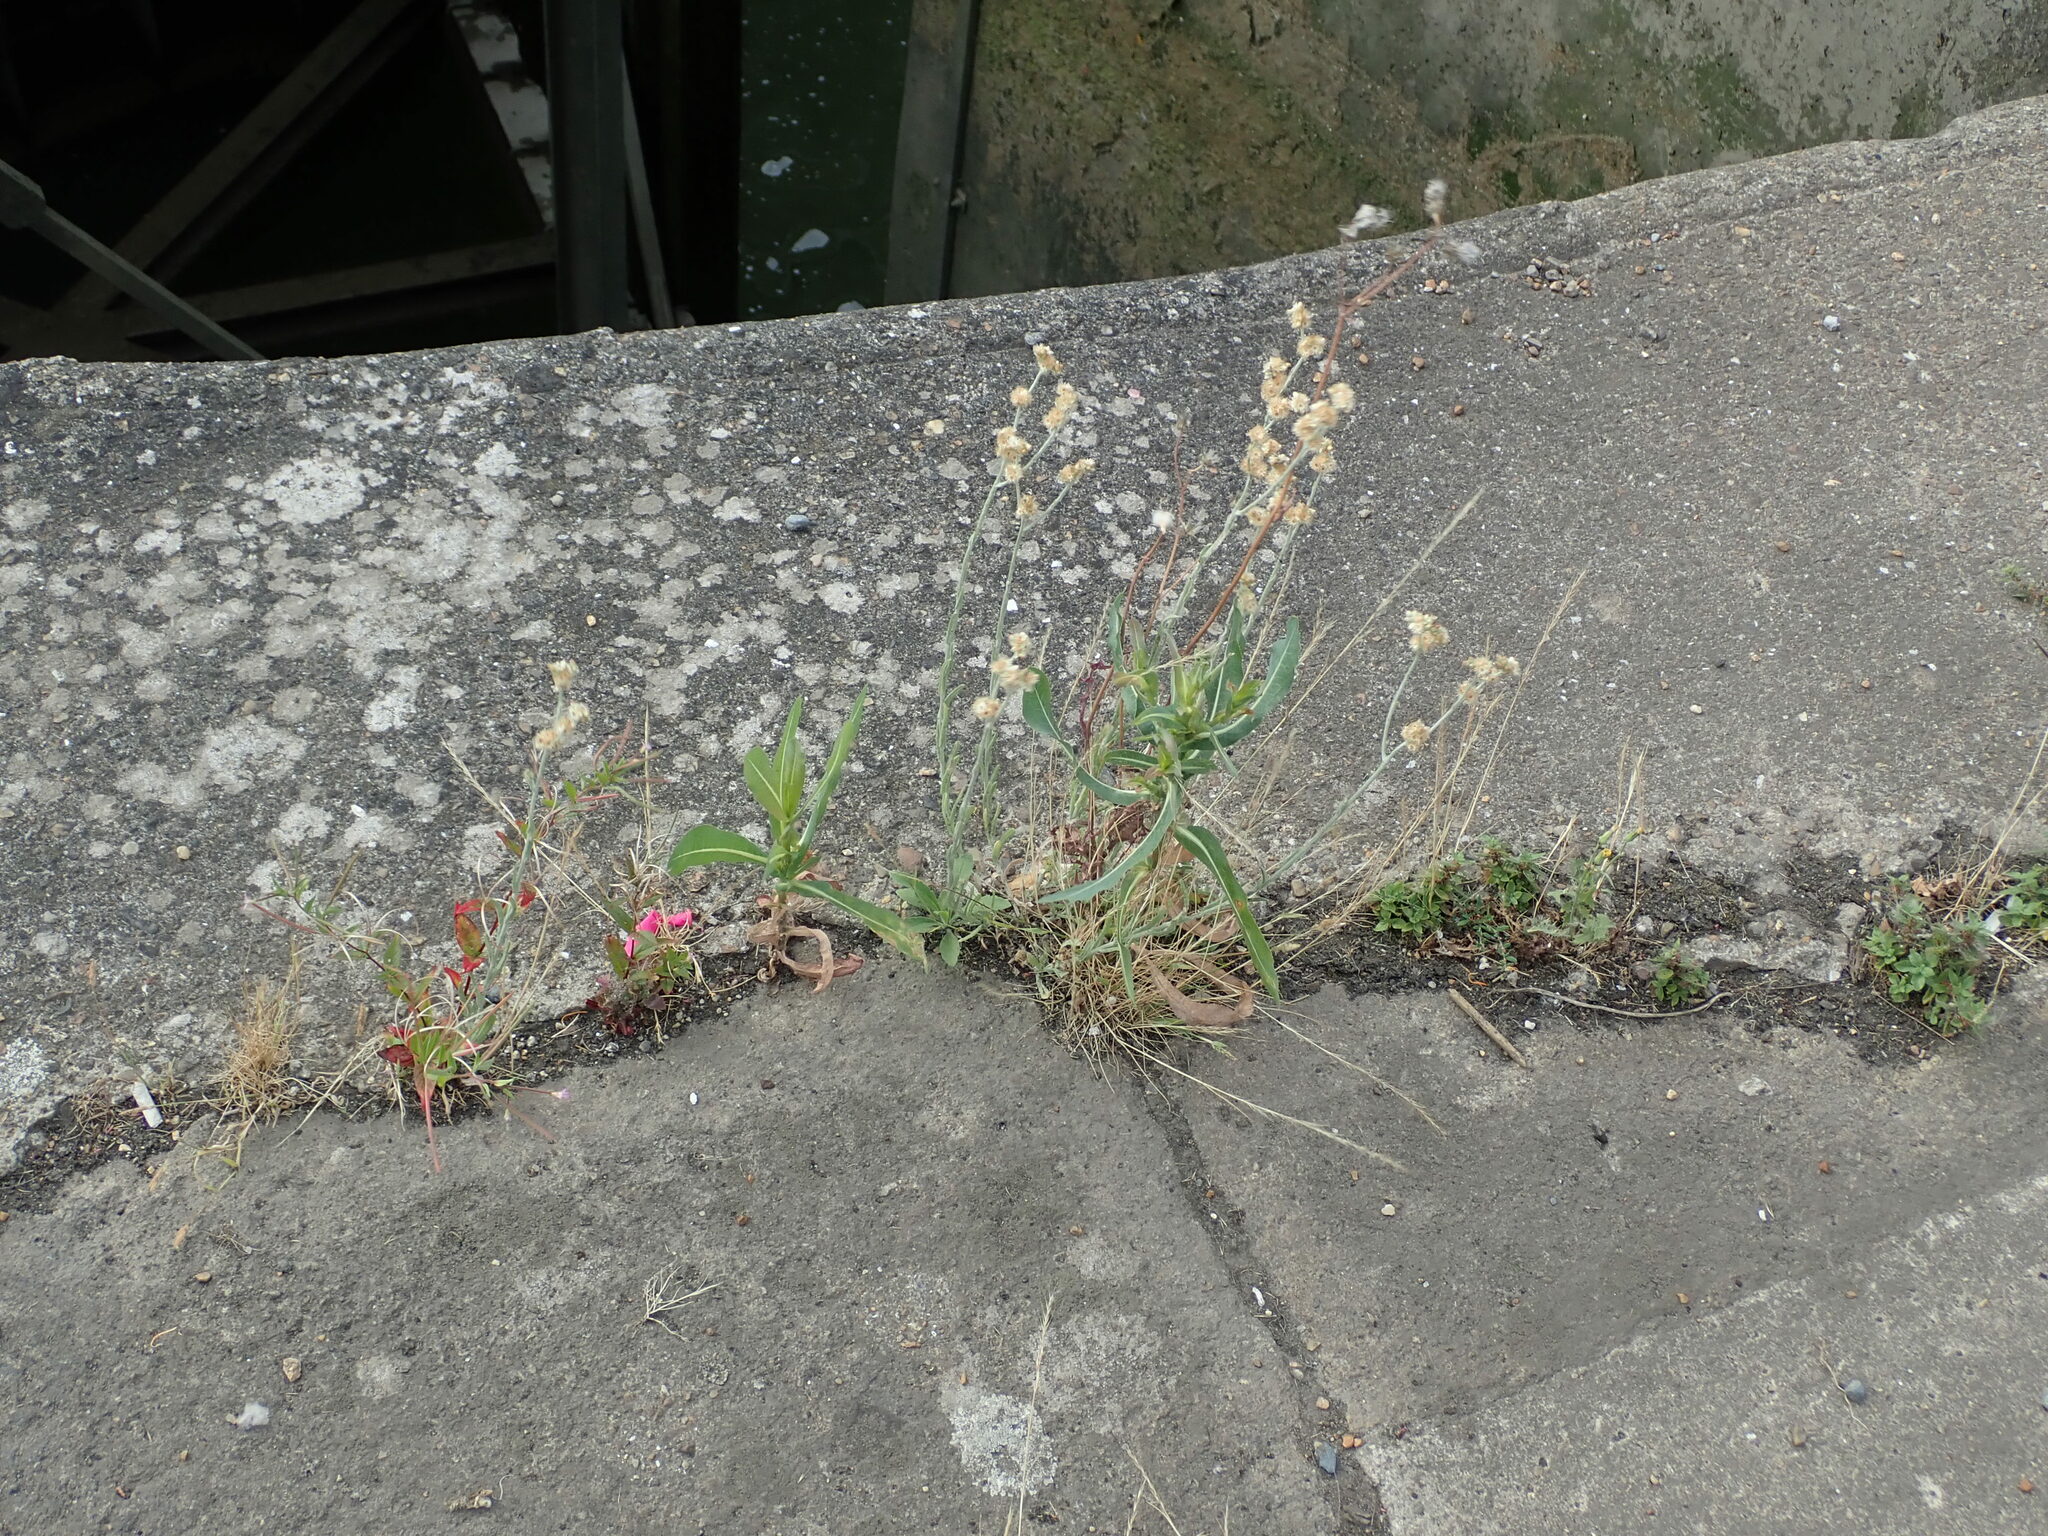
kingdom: Plantae
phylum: Tracheophyta
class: Magnoliopsida
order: Asterales
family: Asteraceae
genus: Helichrysum
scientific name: Helichrysum luteoalbum
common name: Daisy
